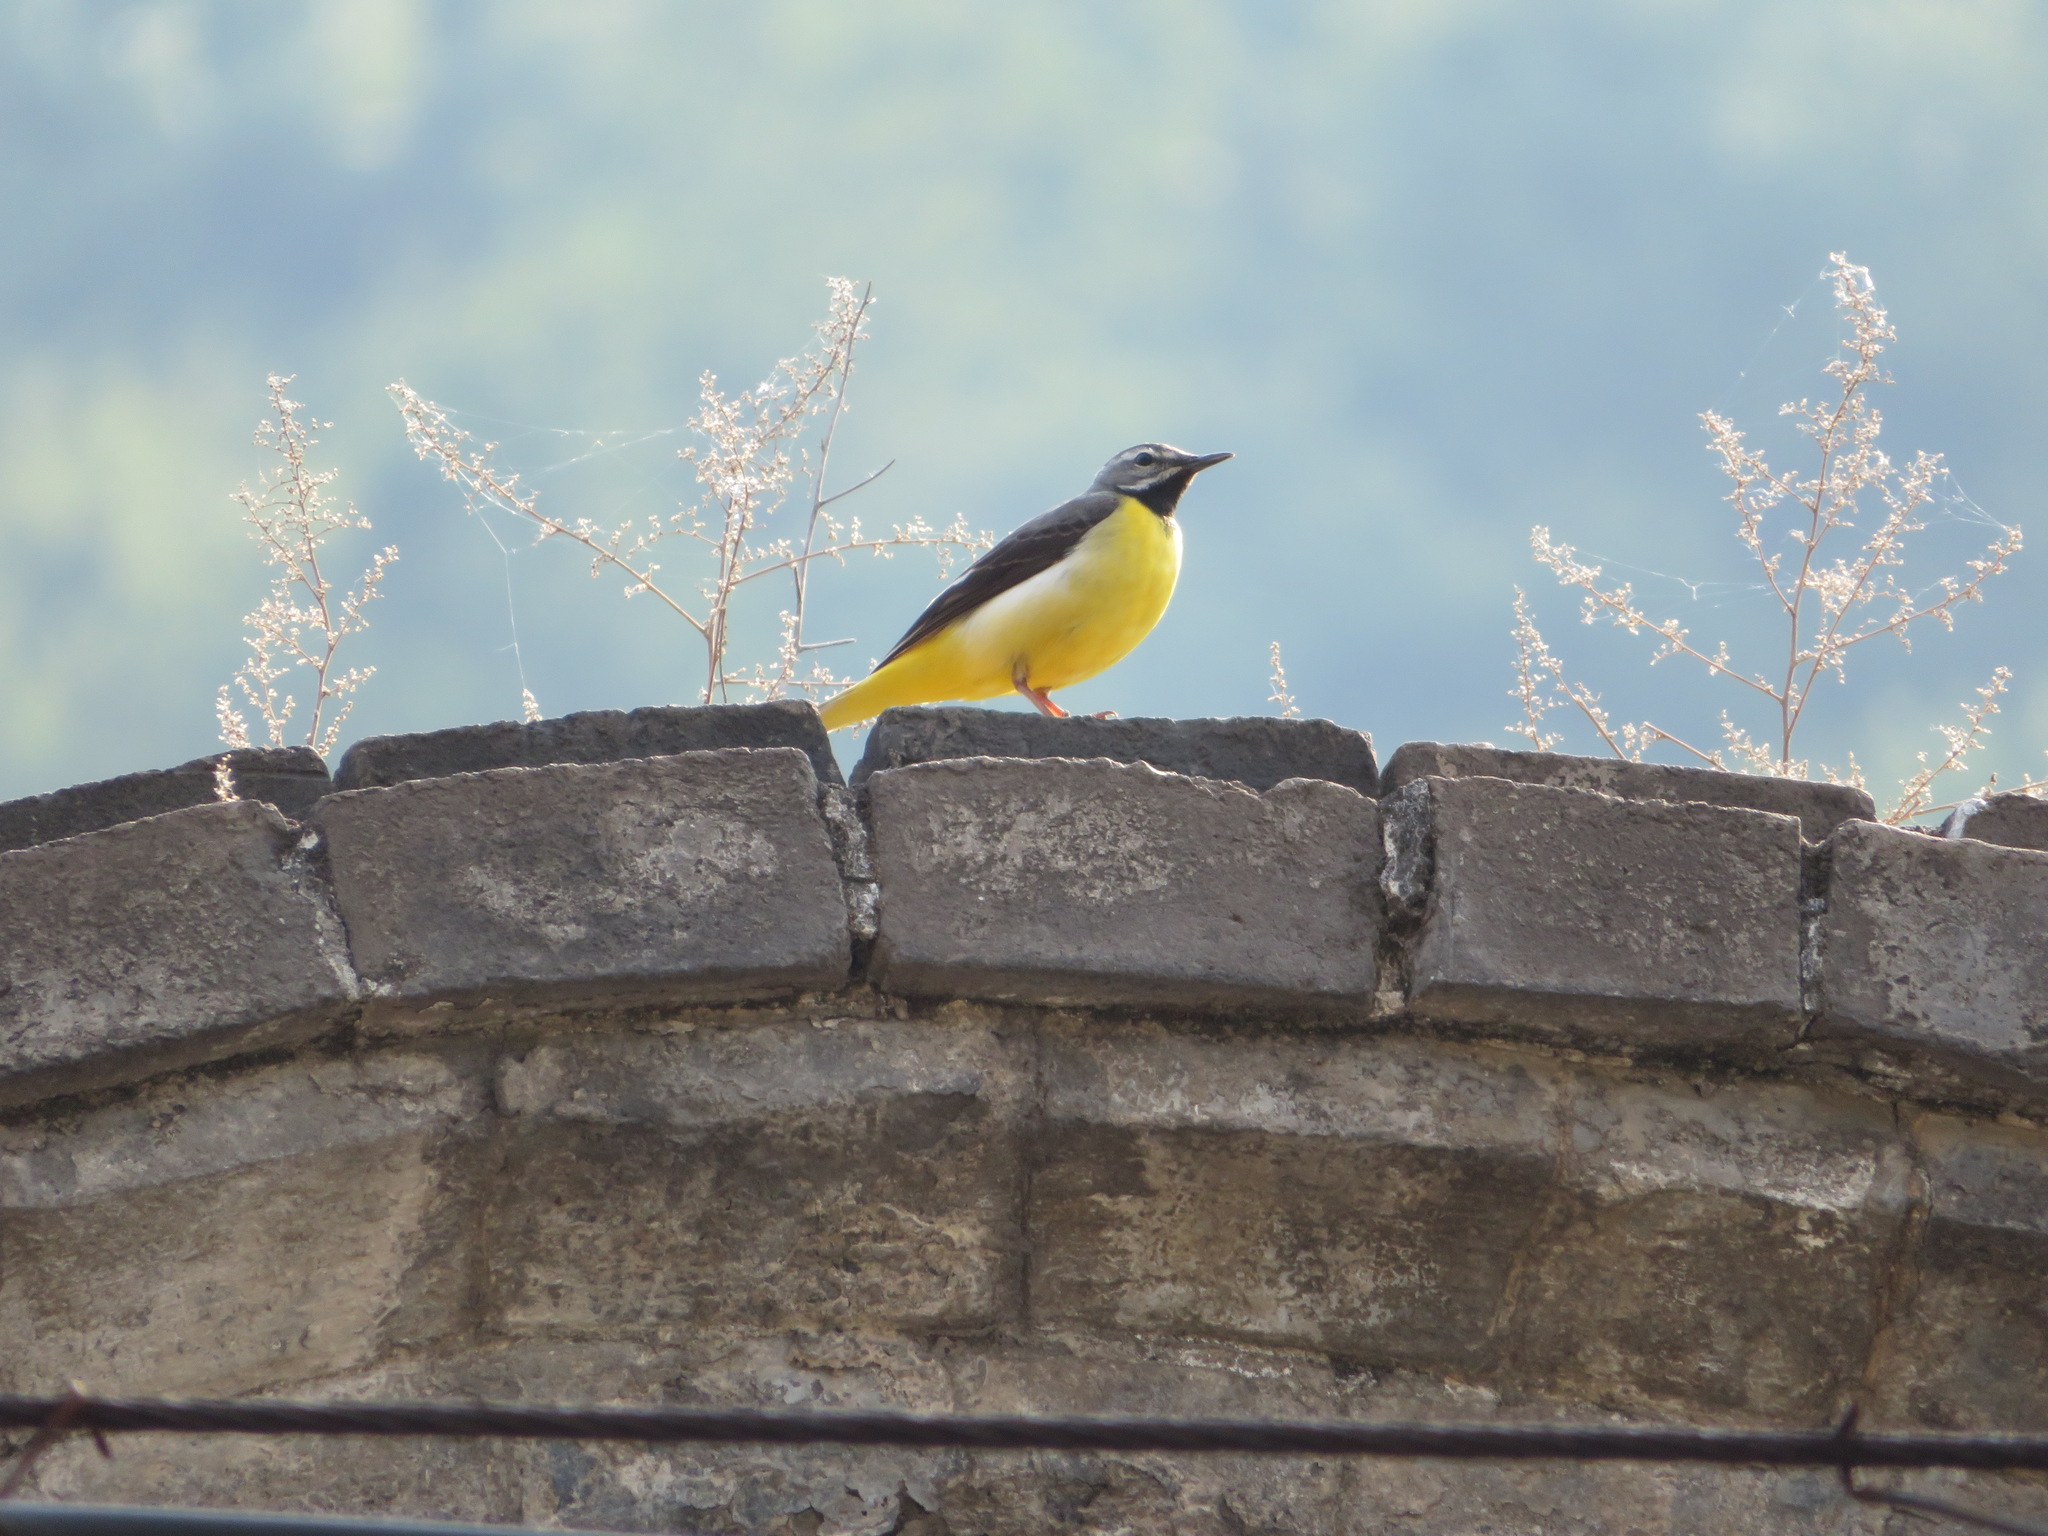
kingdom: Animalia
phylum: Chordata
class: Aves
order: Passeriformes
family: Motacillidae
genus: Motacilla
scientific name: Motacilla cinerea
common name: Grey wagtail
